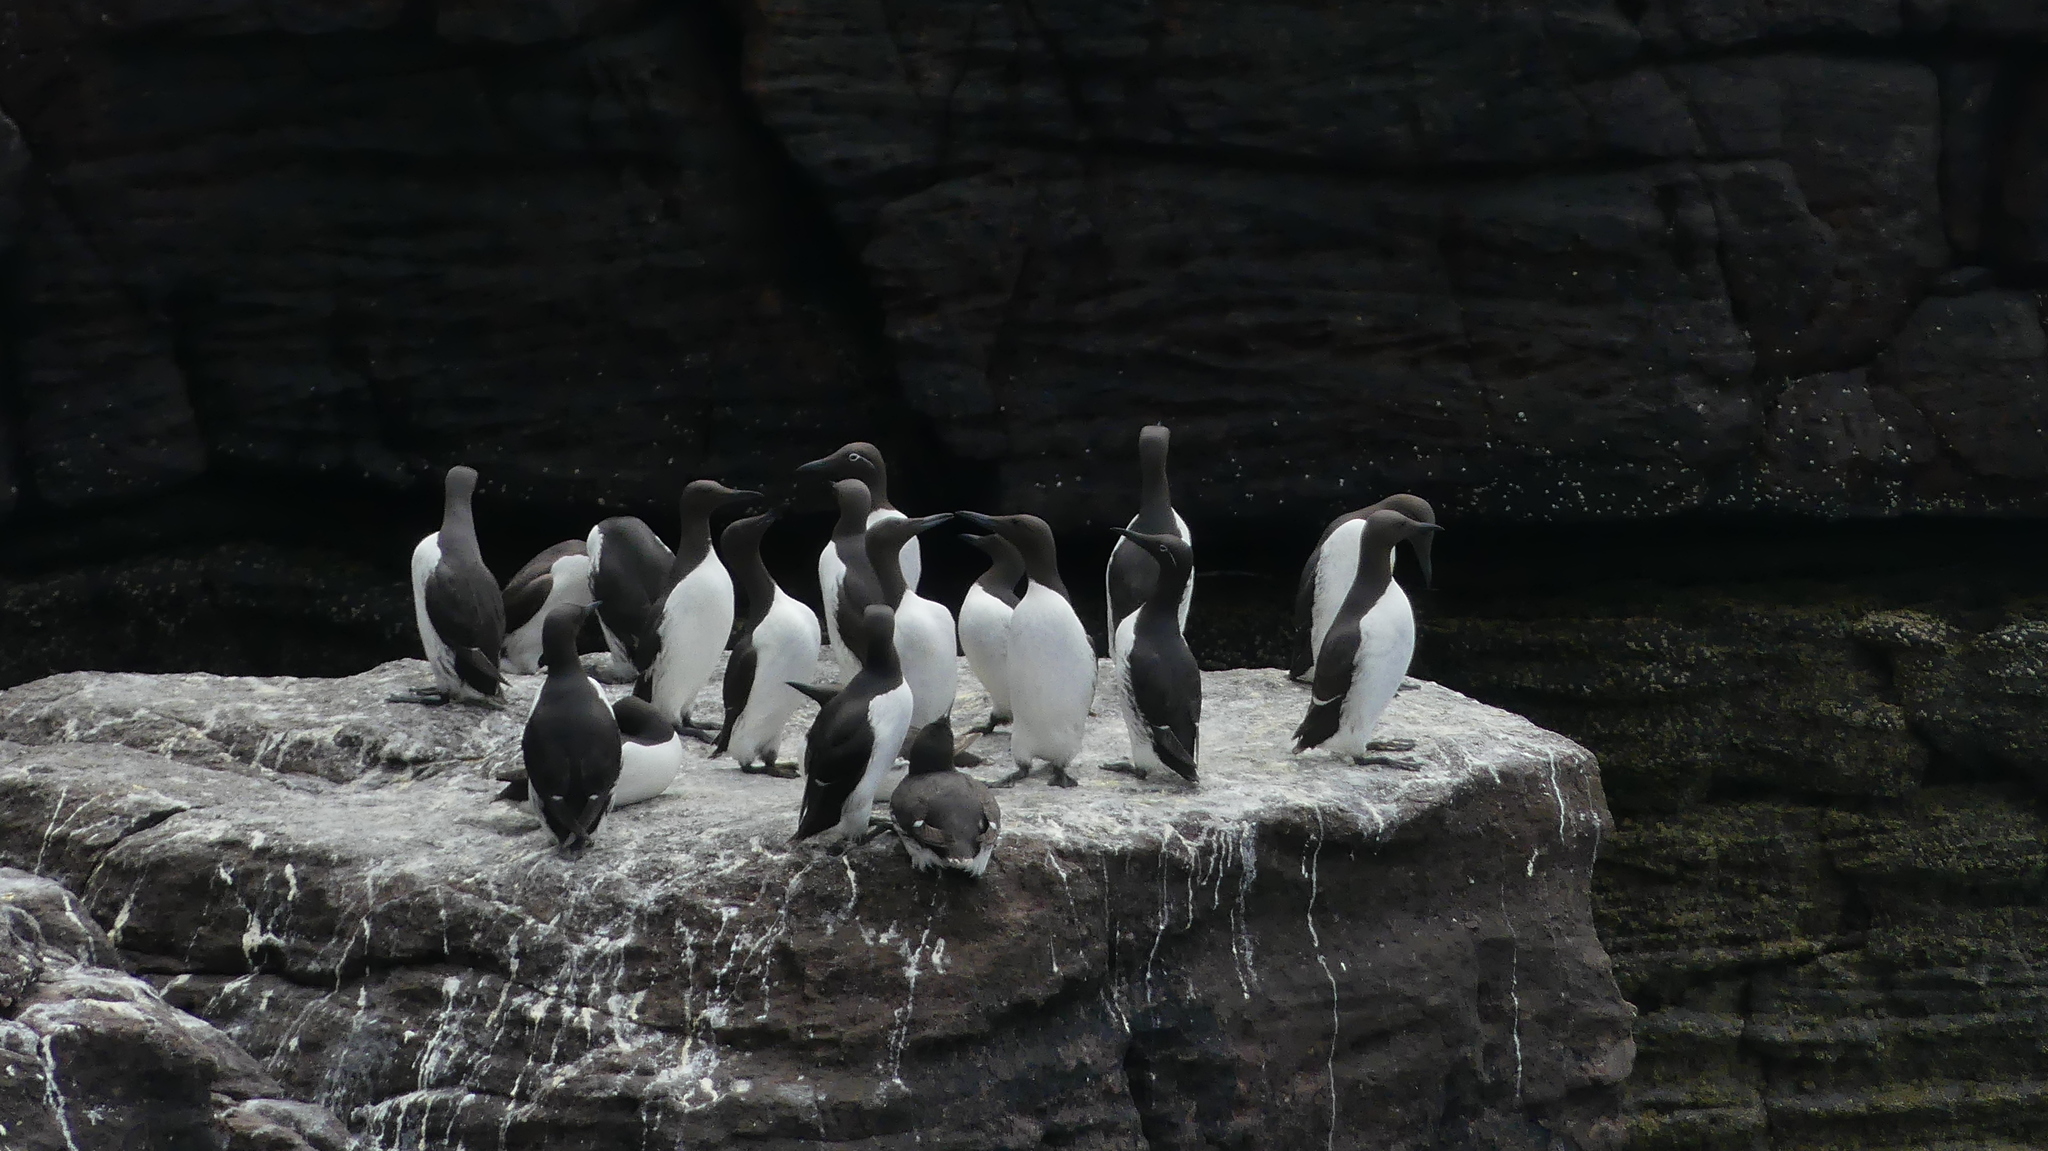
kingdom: Animalia
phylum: Chordata
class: Aves
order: Charadriiformes
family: Alcidae
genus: Uria
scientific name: Uria aalge
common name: Common murre
